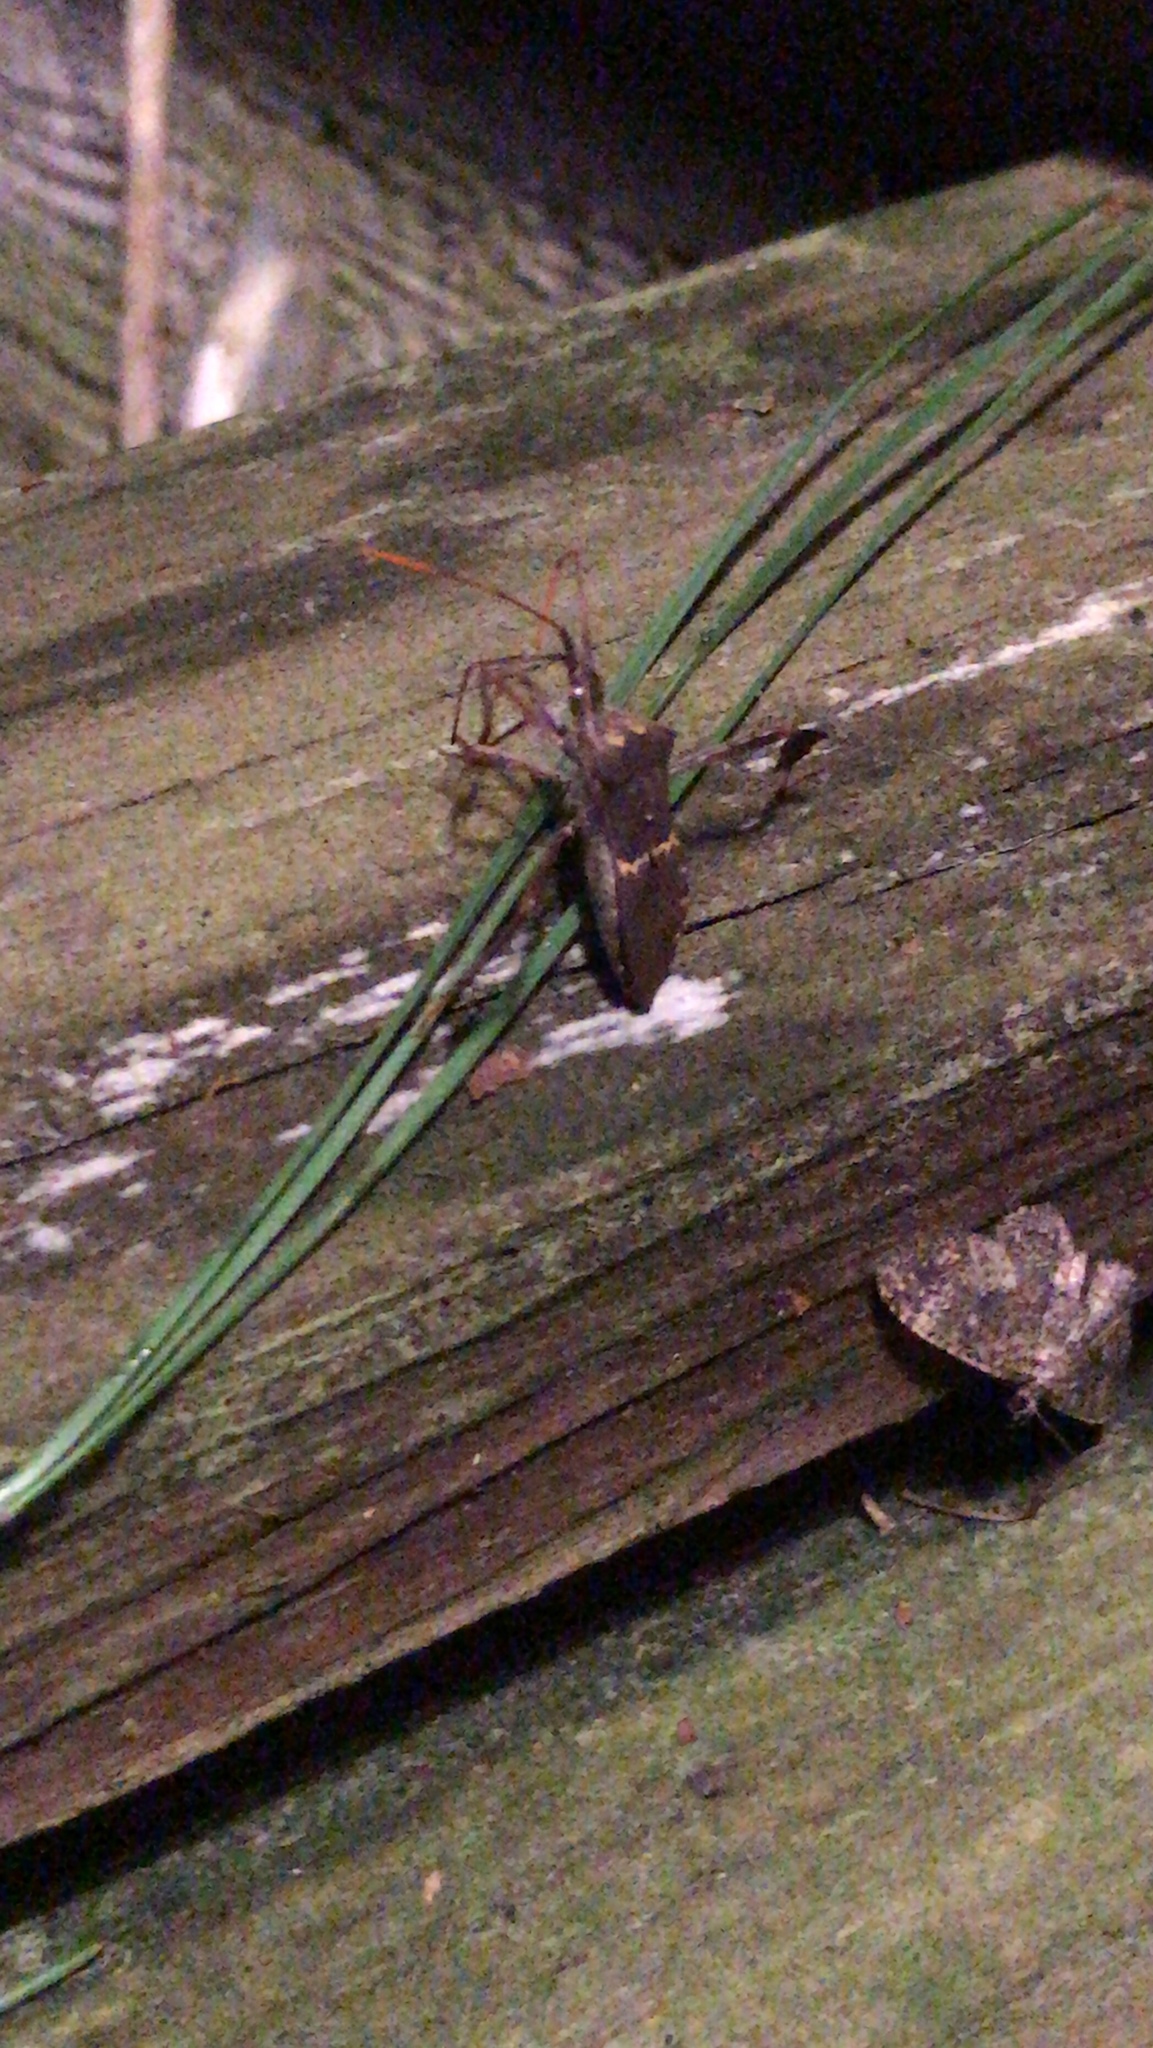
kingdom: Animalia
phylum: Arthropoda
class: Insecta
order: Hemiptera
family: Coreidae
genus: Leptoglossus
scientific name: Leptoglossus zonatus
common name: Large-legged bug
